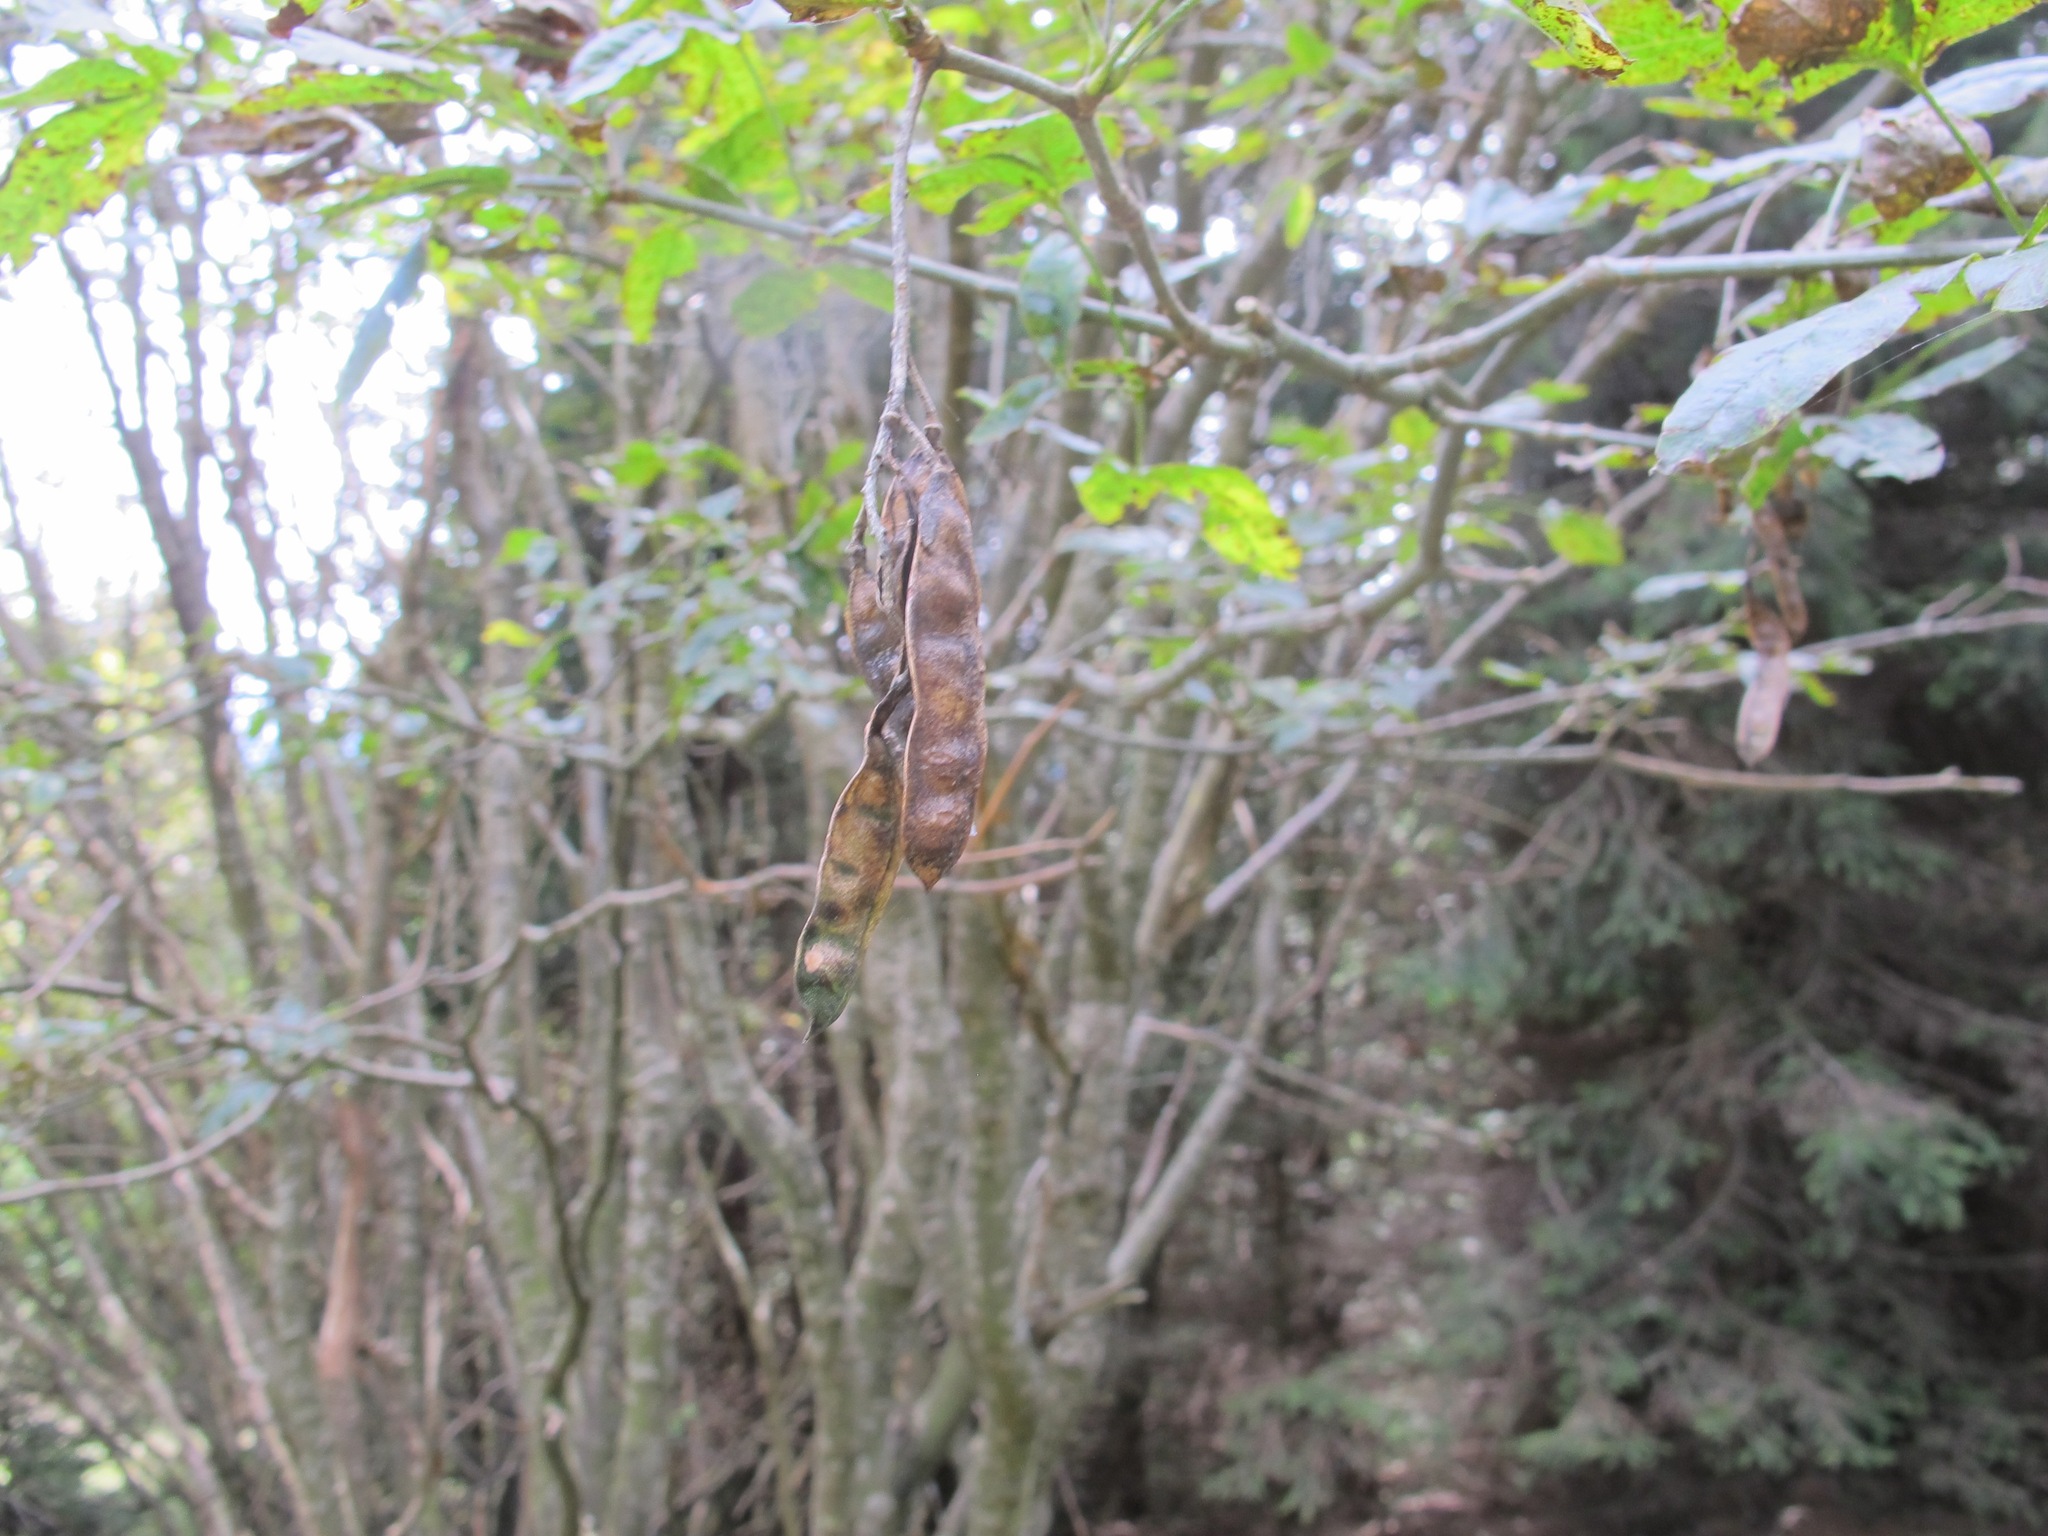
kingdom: Plantae
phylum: Tracheophyta
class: Magnoliopsida
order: Fabales
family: Fabaceae
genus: Laburnum
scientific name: Laburnum alpinum
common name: Scottish laburnum
